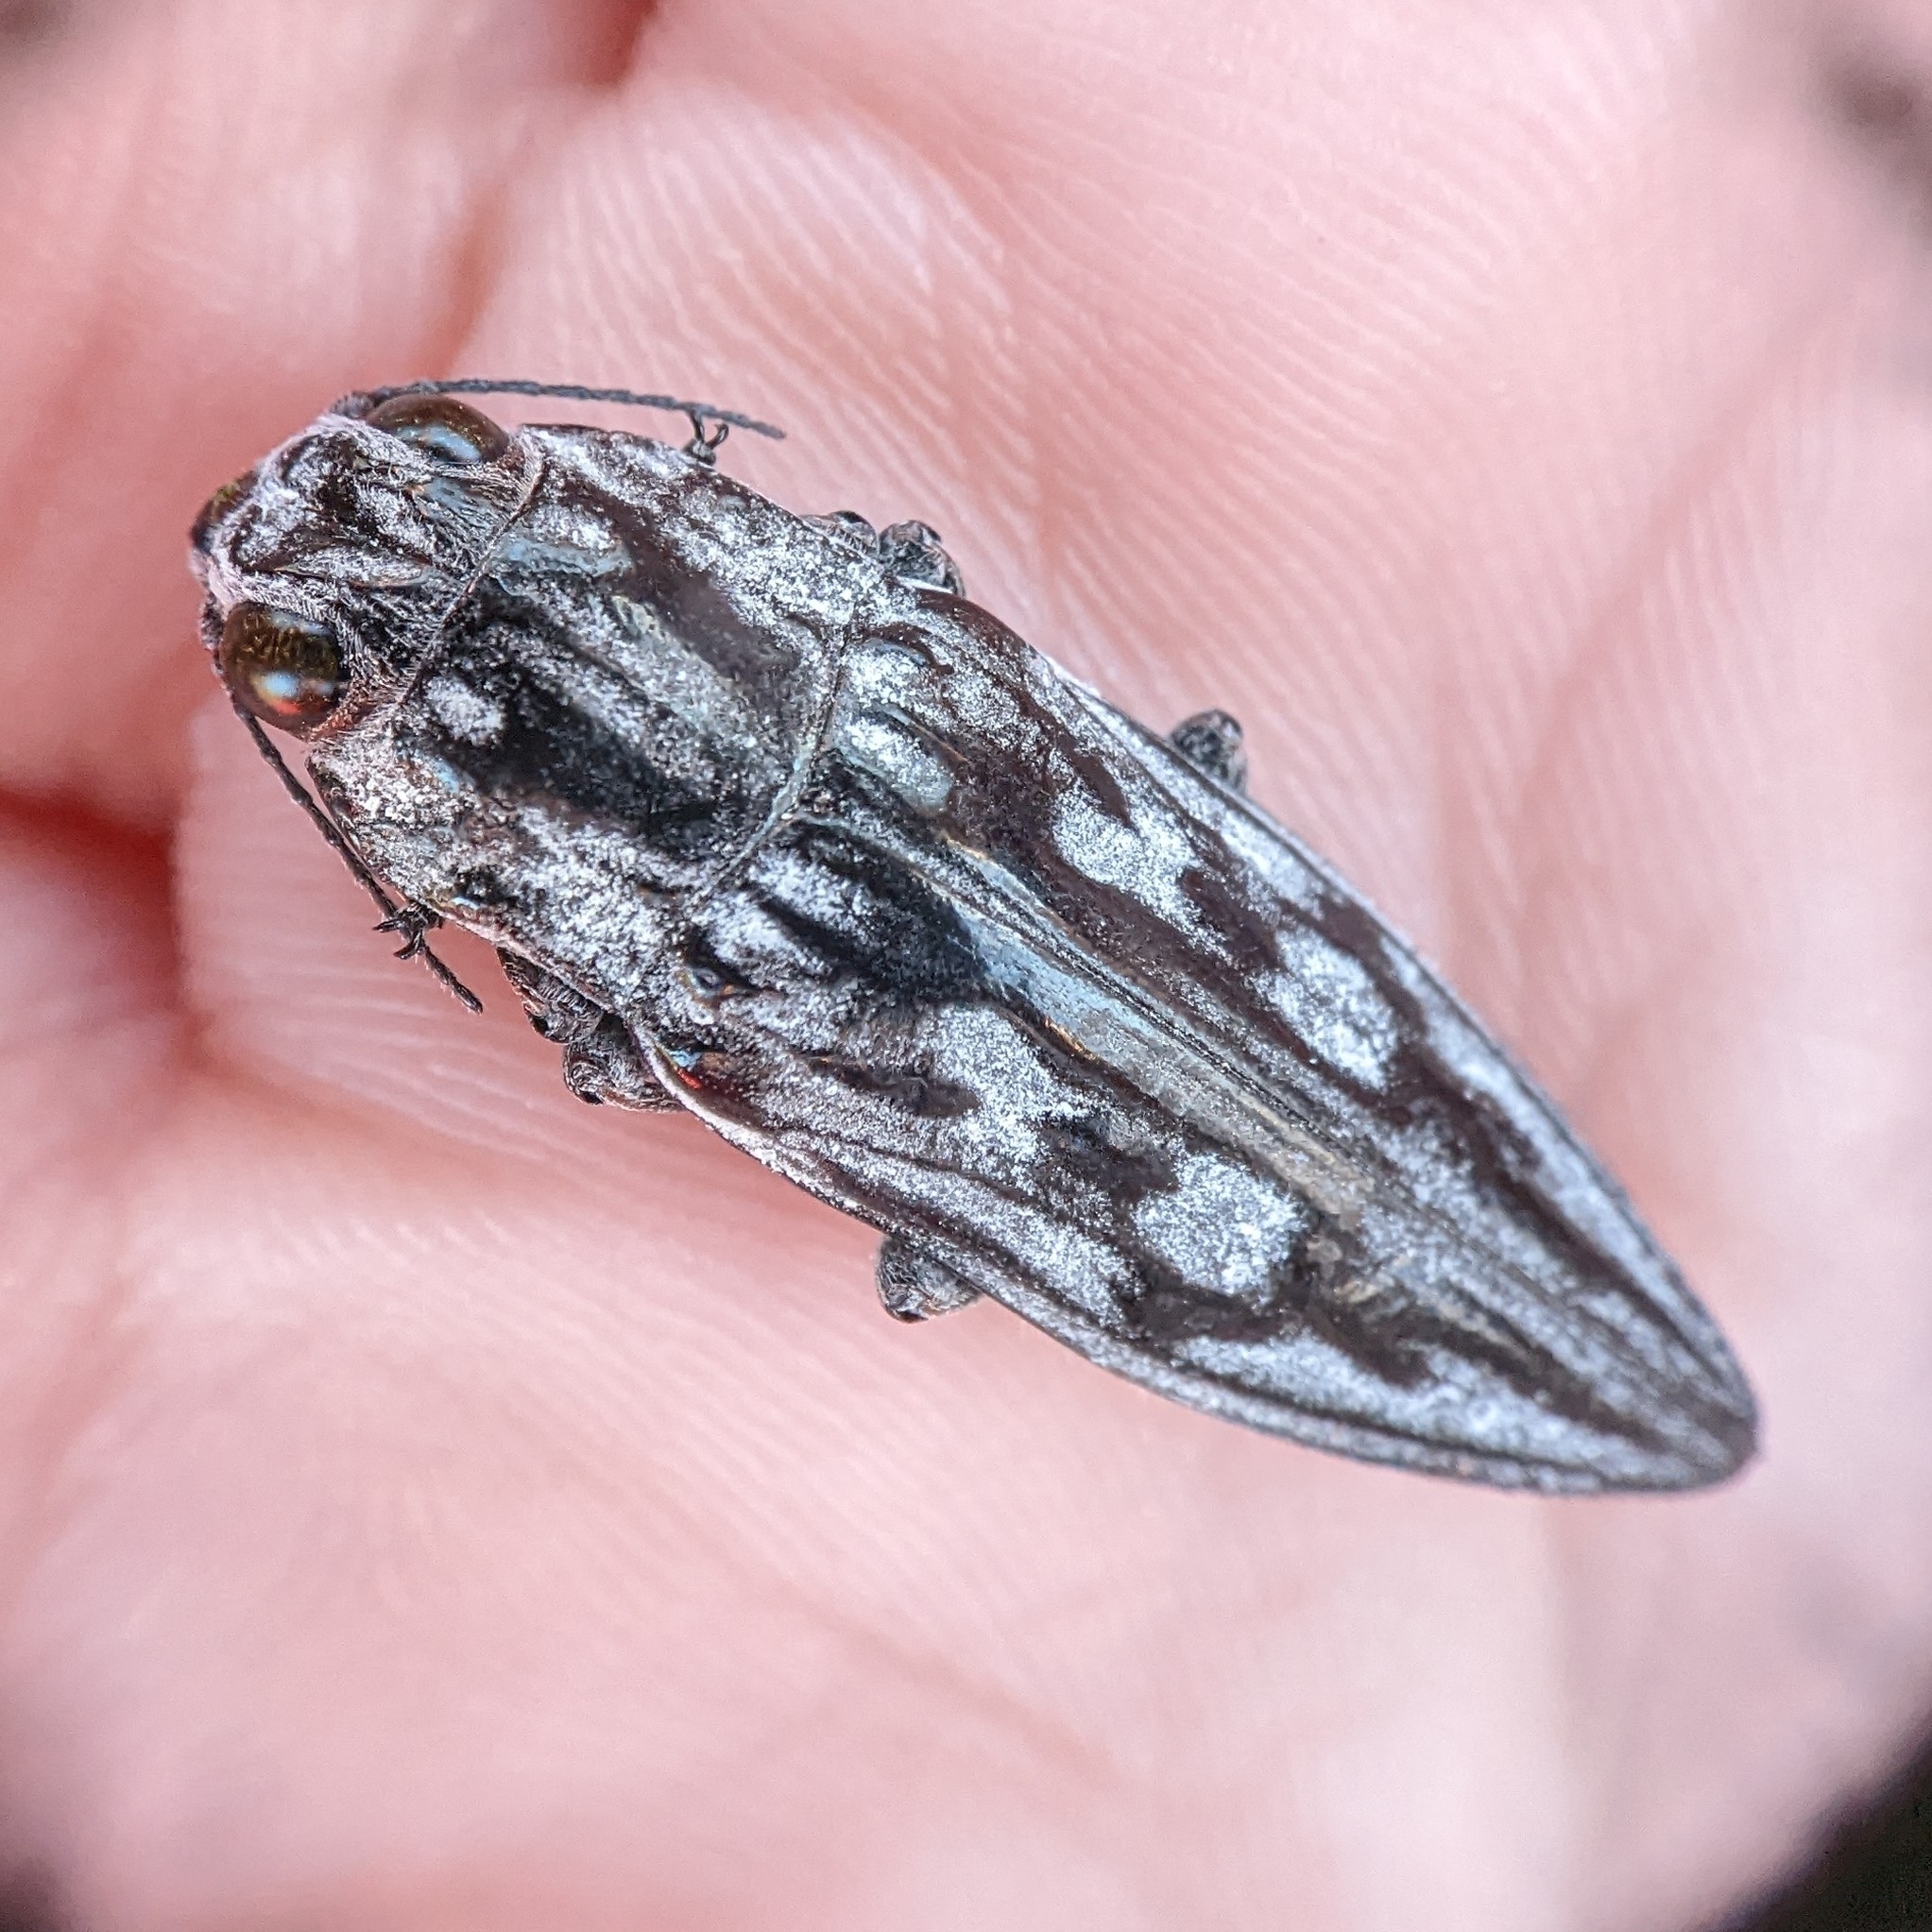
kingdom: Animalia
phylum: Arthropoda
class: Insecta
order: Coleoptera
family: Buprestidae
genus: Chalcophora
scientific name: Chalcophora virginiensis
